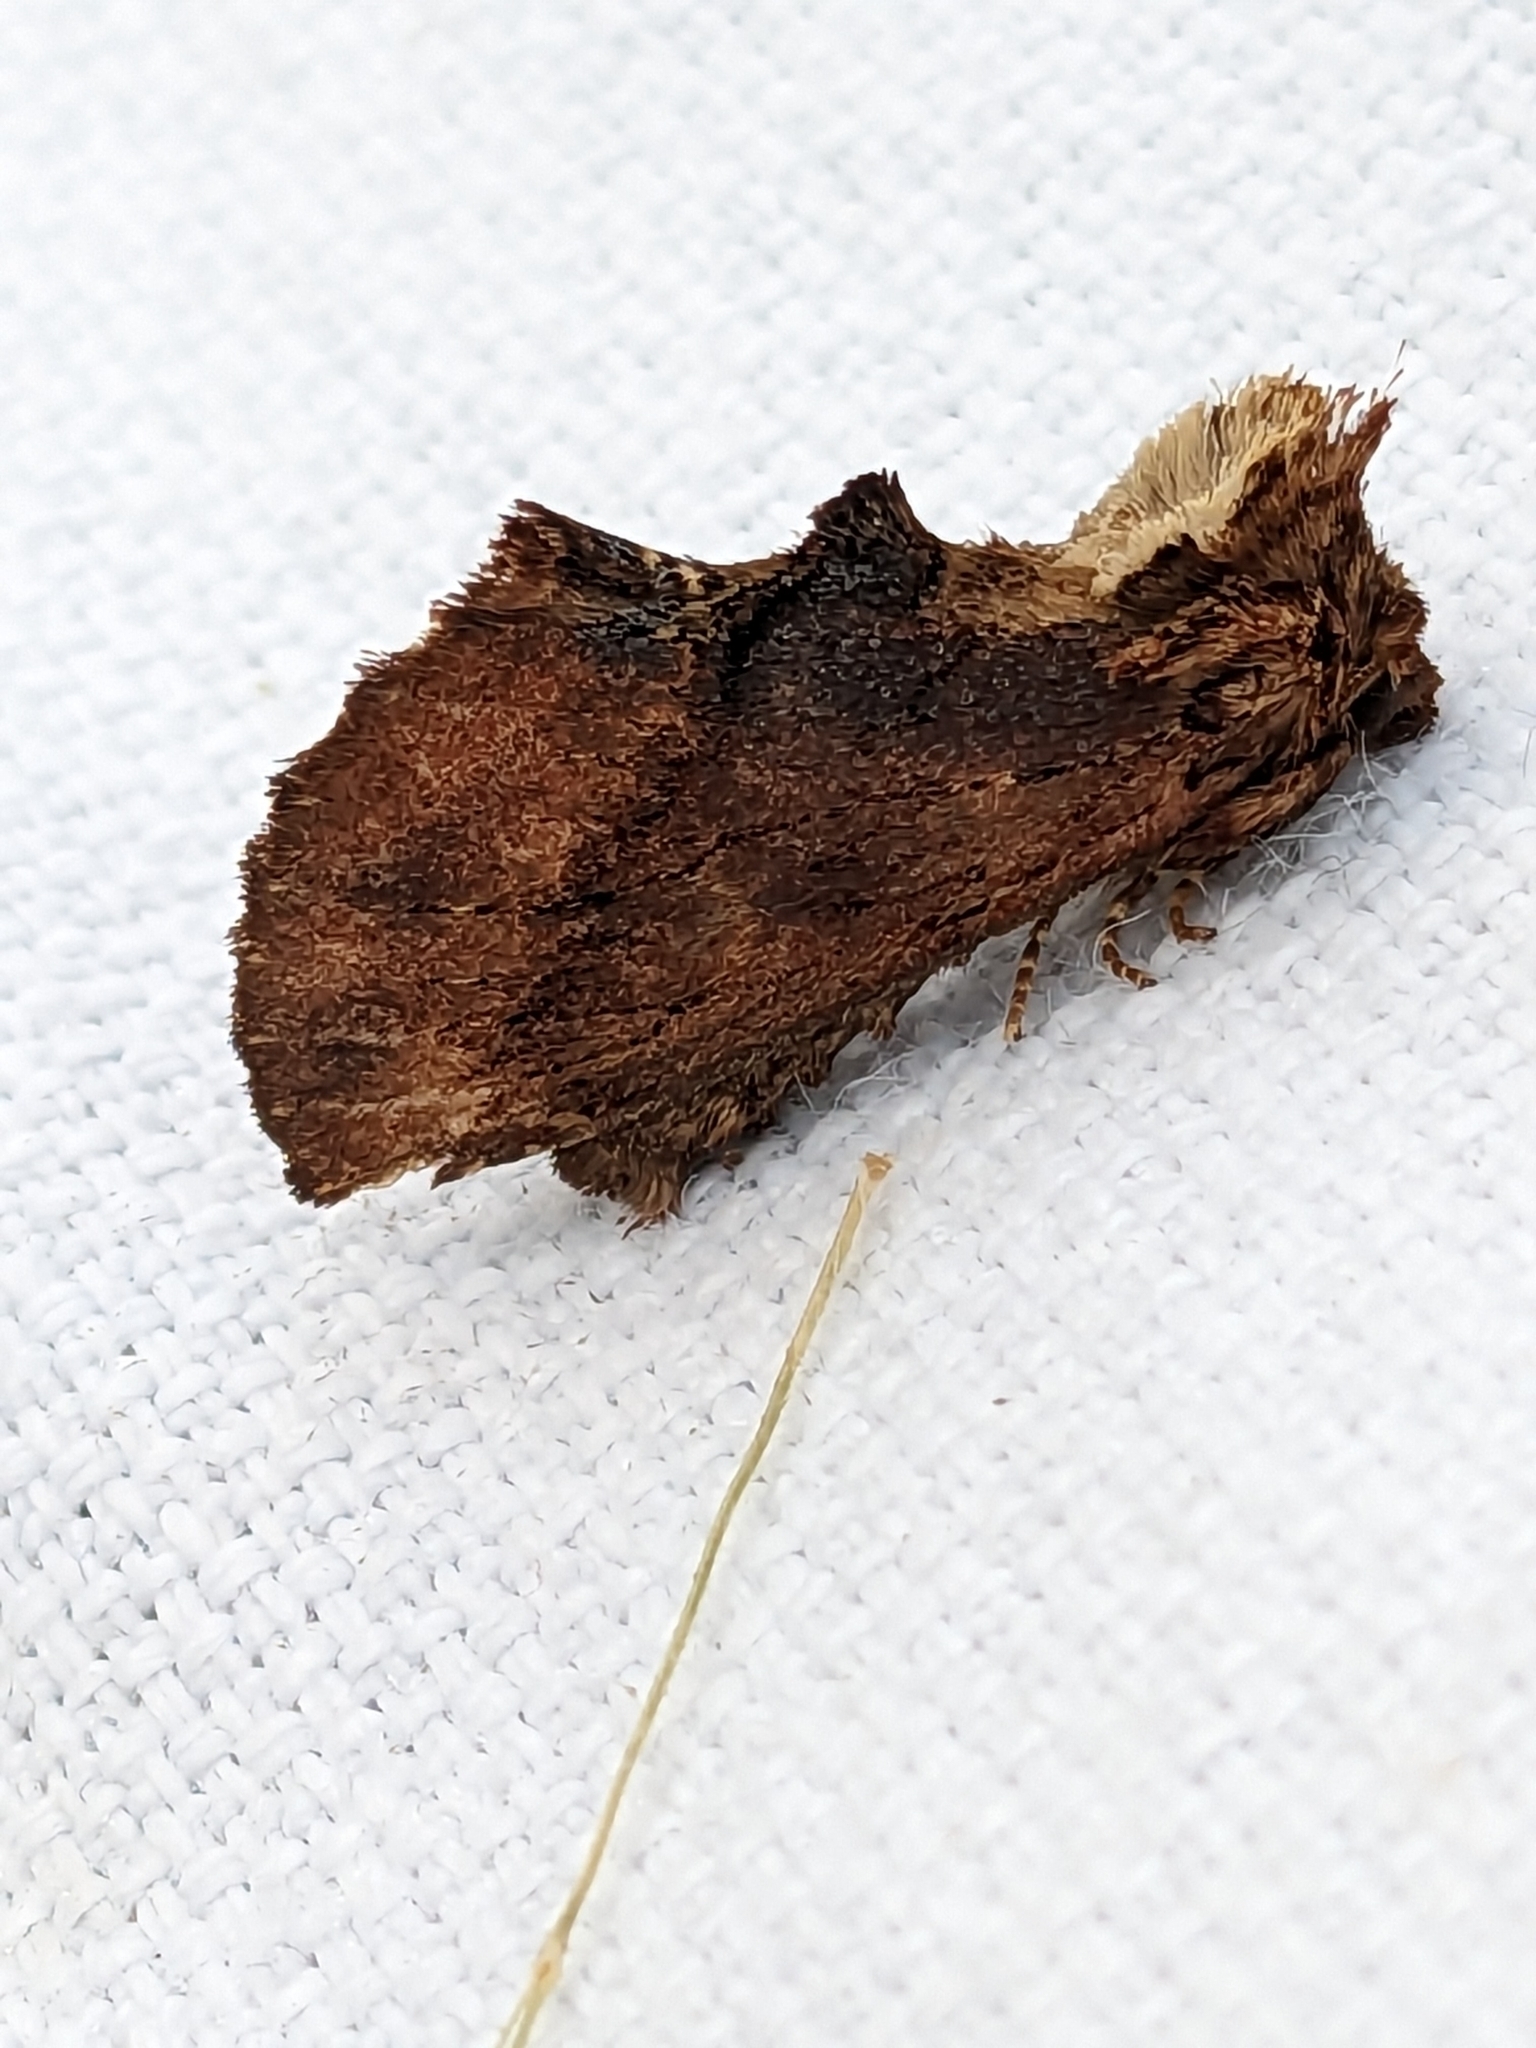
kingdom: Animalia
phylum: Arthropoda
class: Insecta
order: Lepidoptera
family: Notodontidae
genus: Ptilodon
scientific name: Ptilodon capucina
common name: Coxcomb prominent
